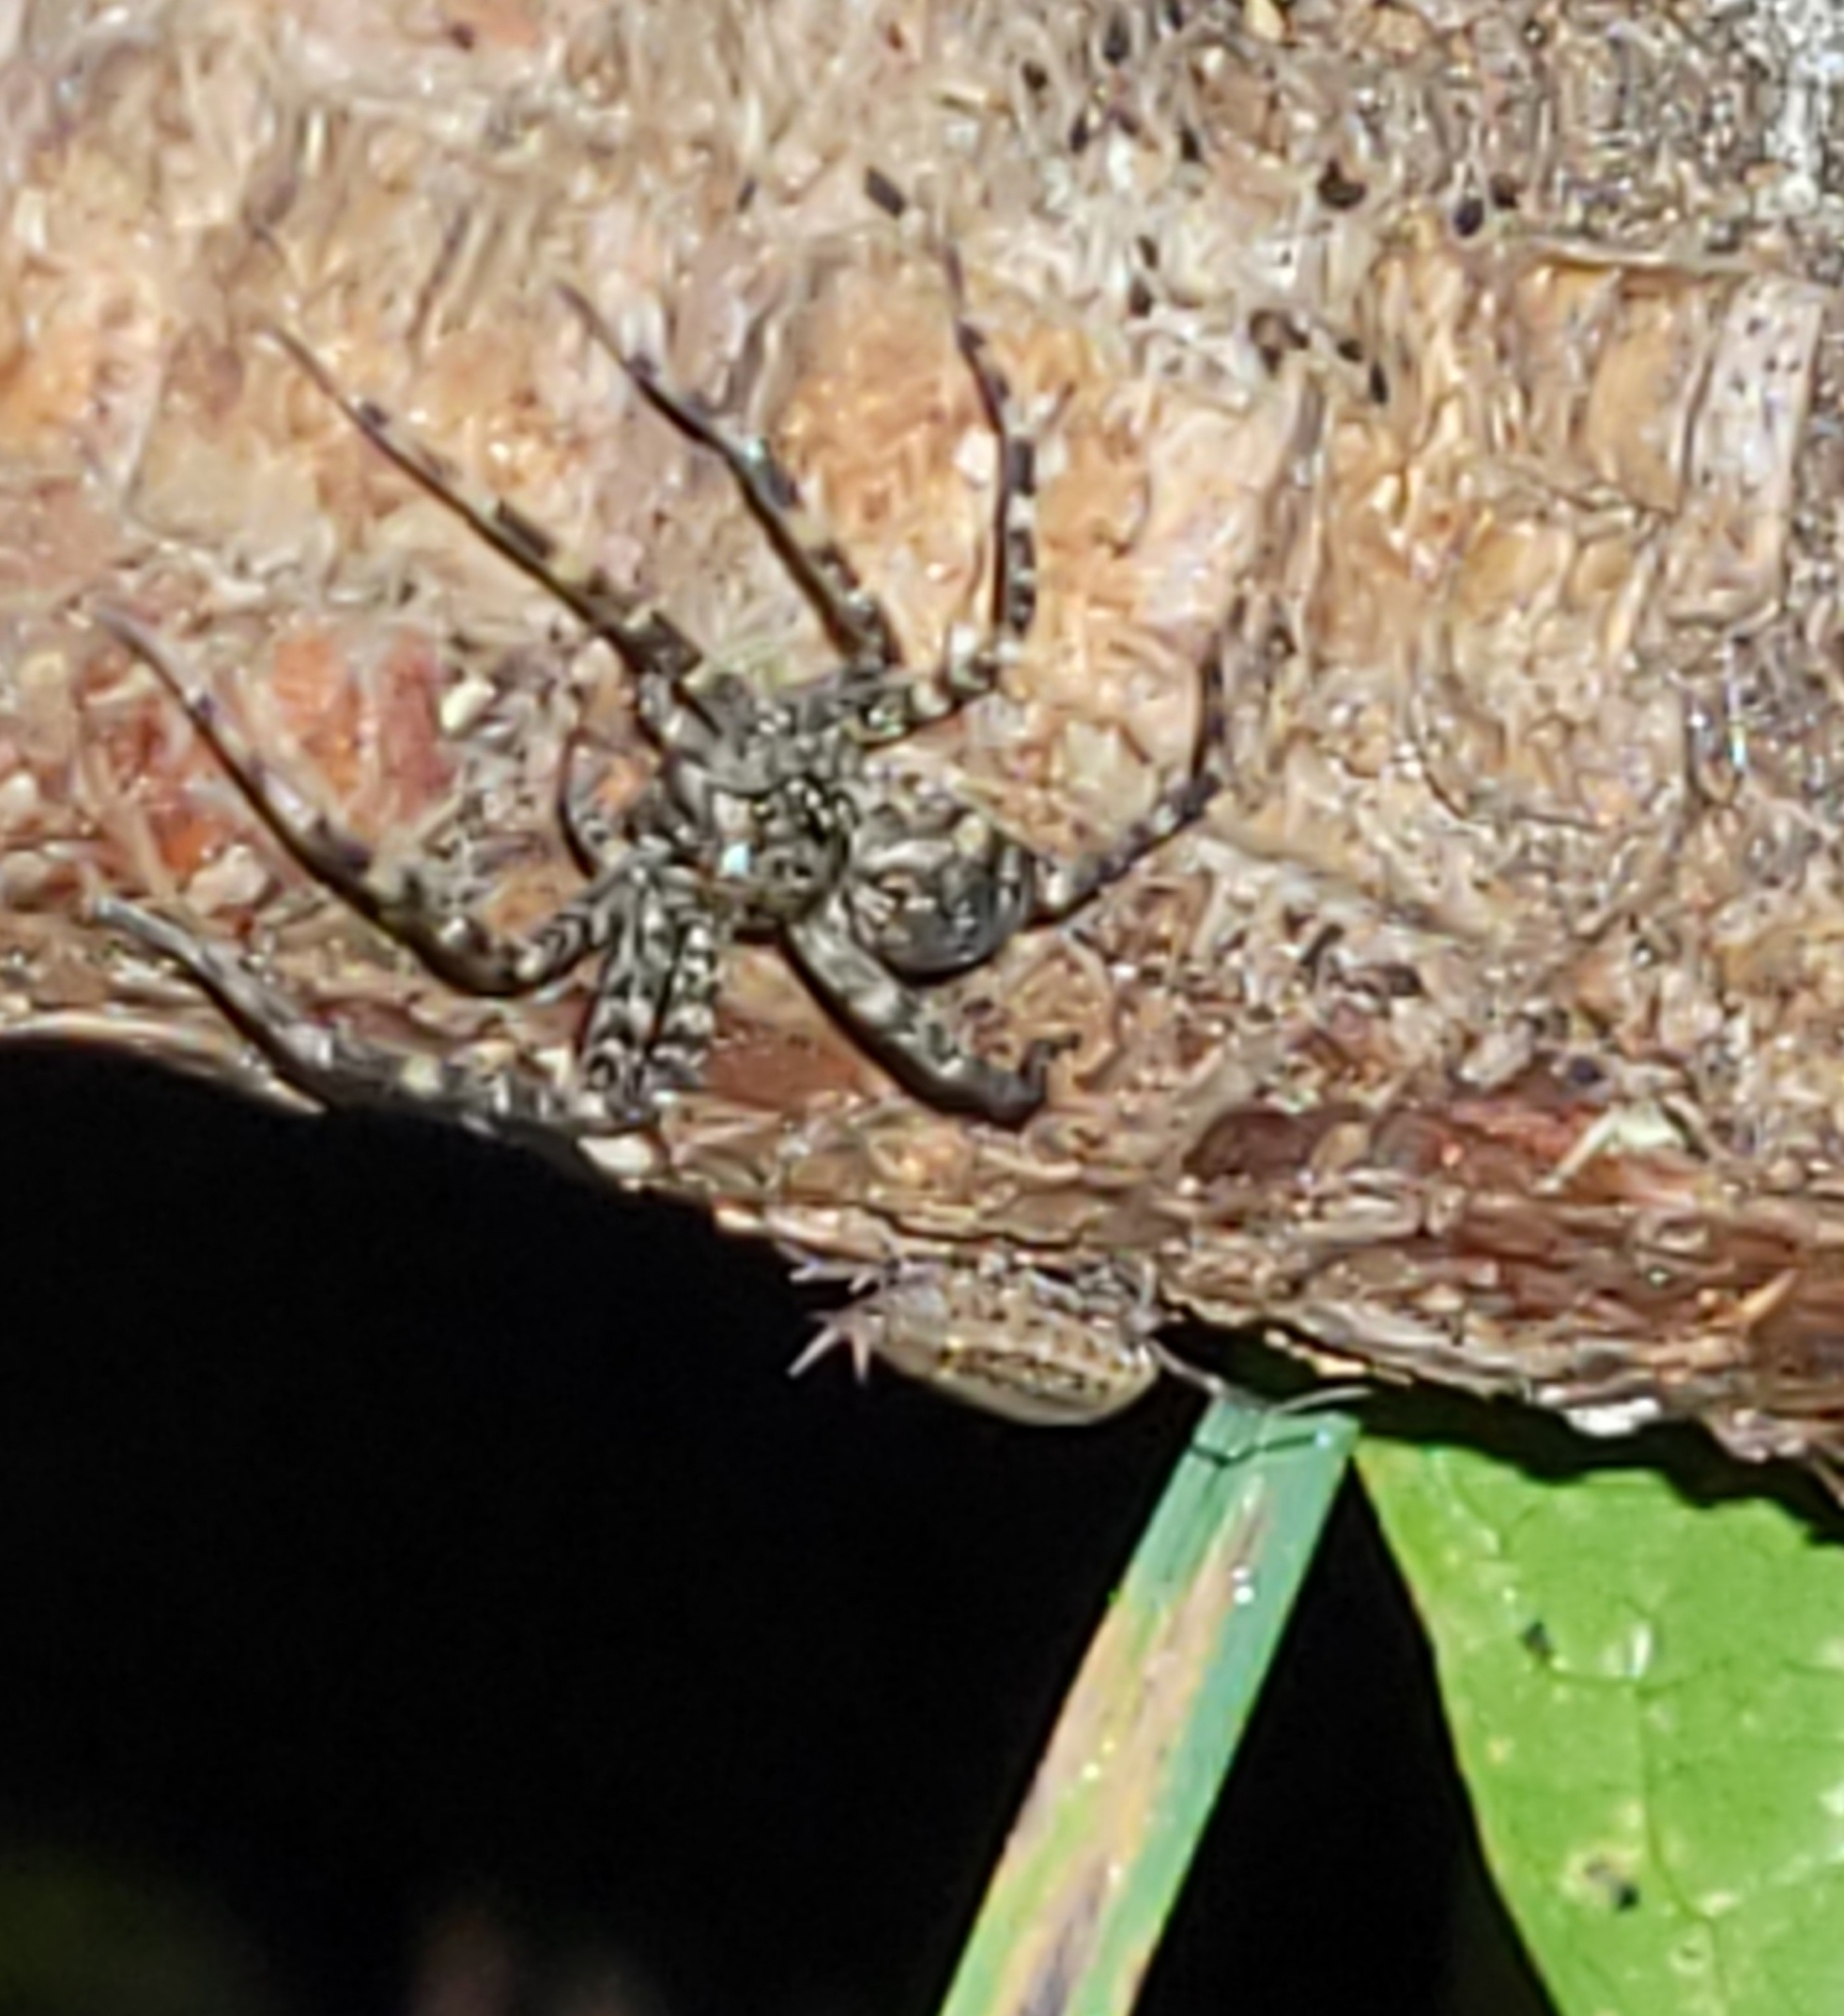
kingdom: Animalia
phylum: Arthropoda
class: Arachnida
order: Araneae
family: Pisauridae
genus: Dolomedes
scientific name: Dolomedes tenebrosus
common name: Dark fishing spider
